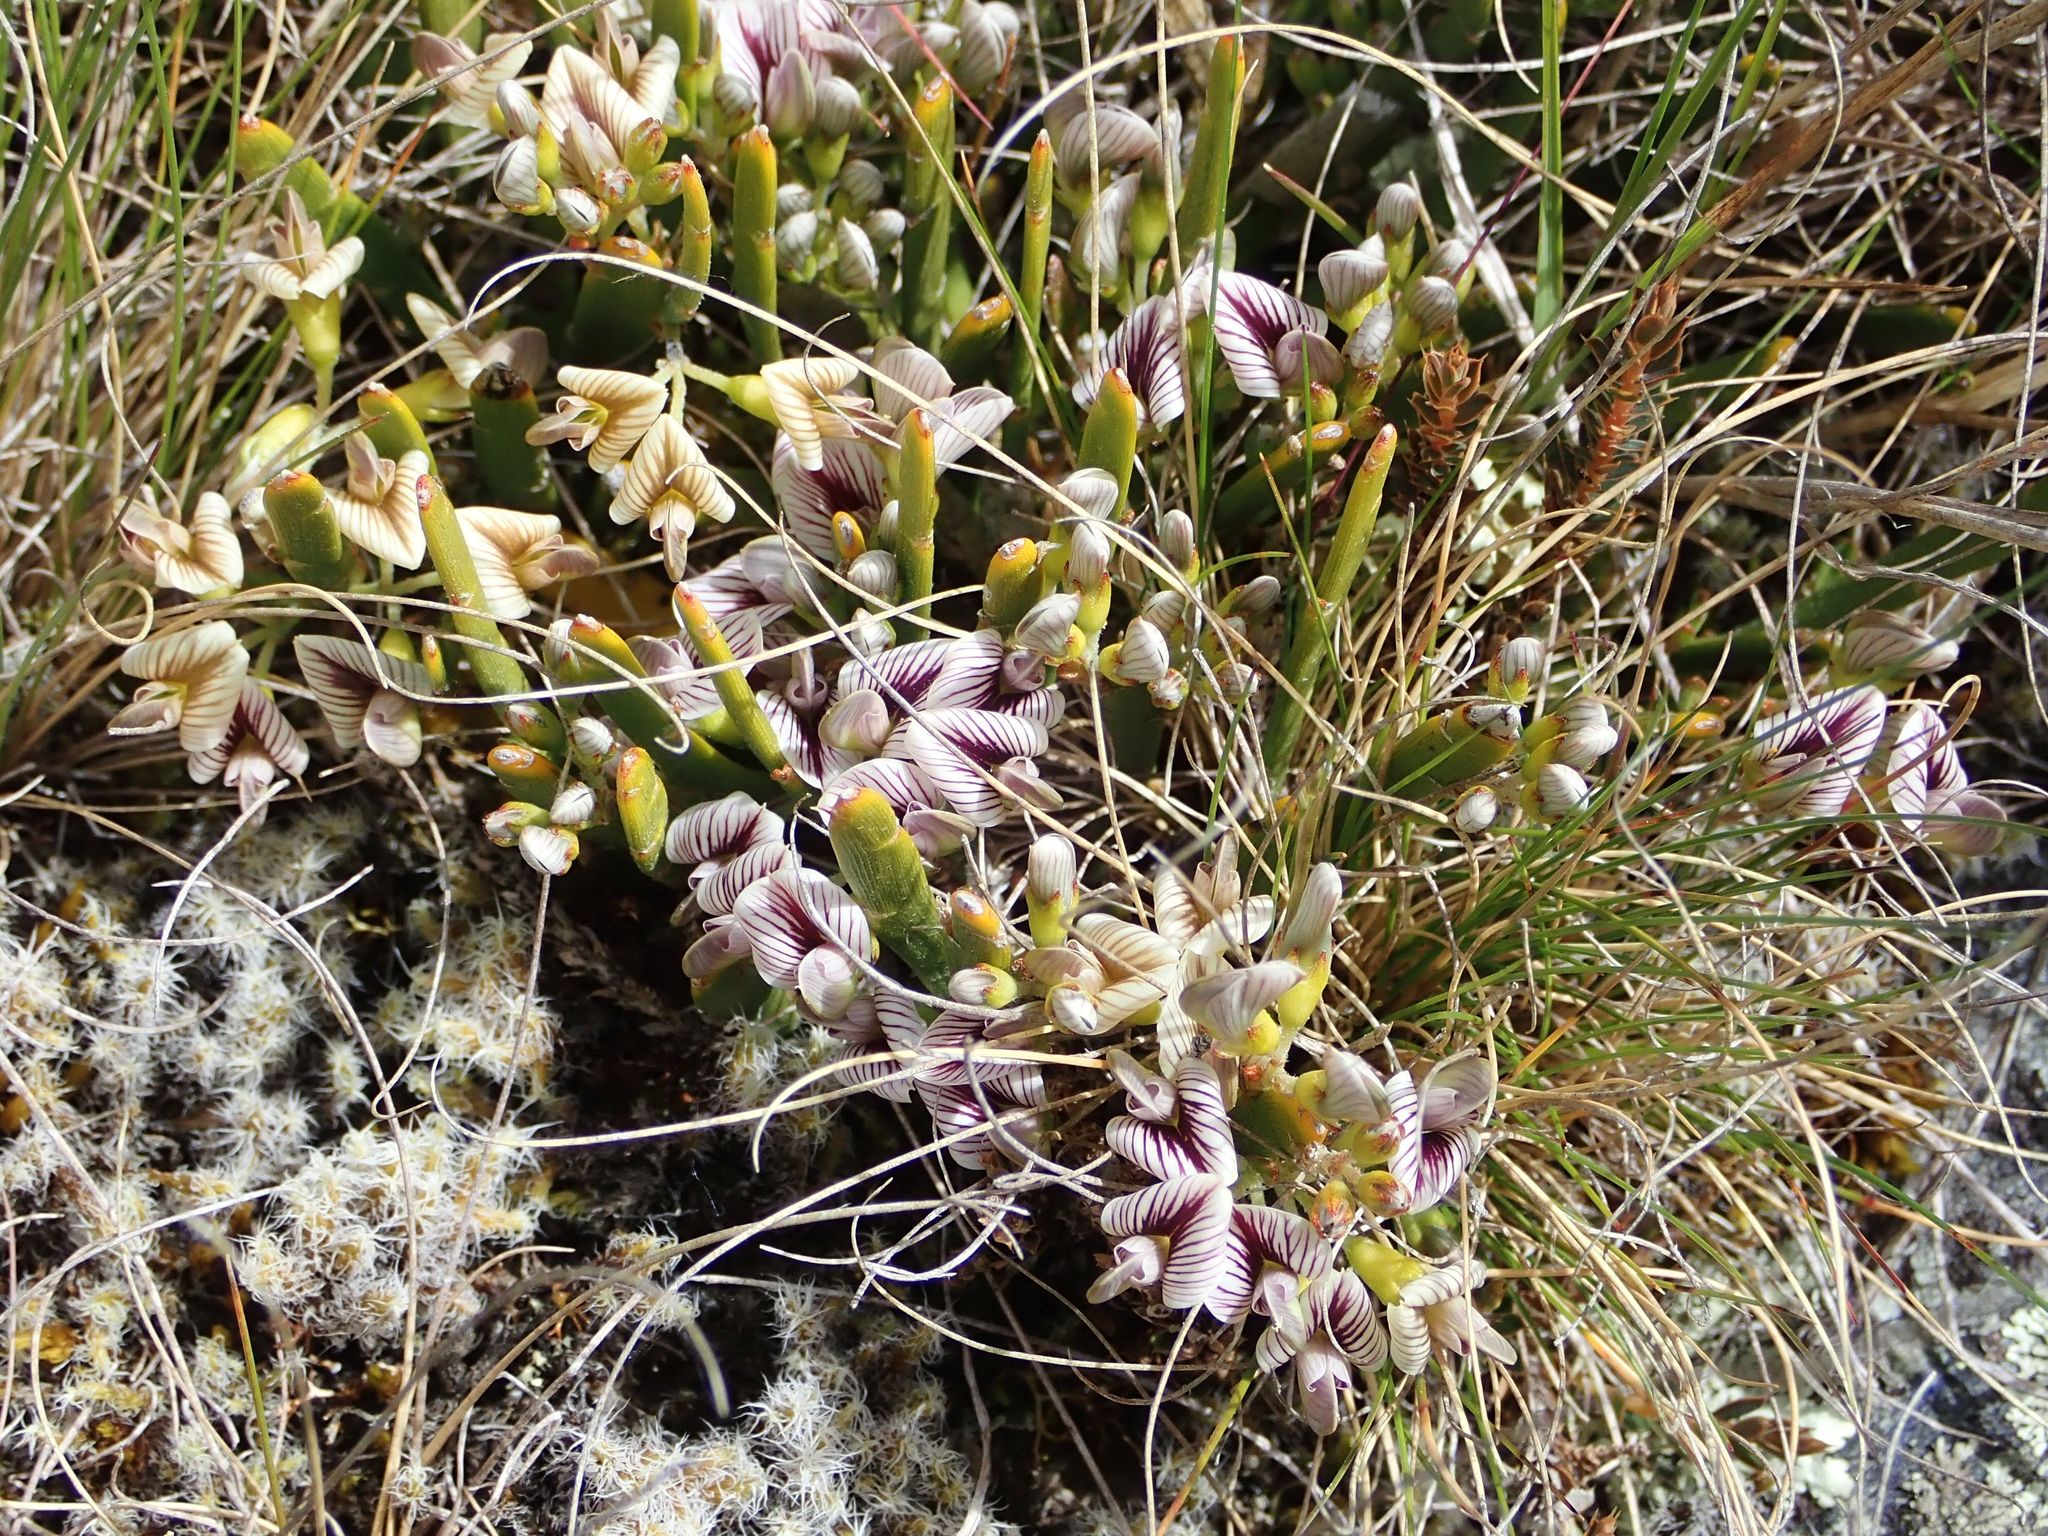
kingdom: Plantae
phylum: Tracheophyta
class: Magnoliopsida
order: Fabales
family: Fabaceae
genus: Carmichaelia
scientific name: Carmichaelia vexillata
